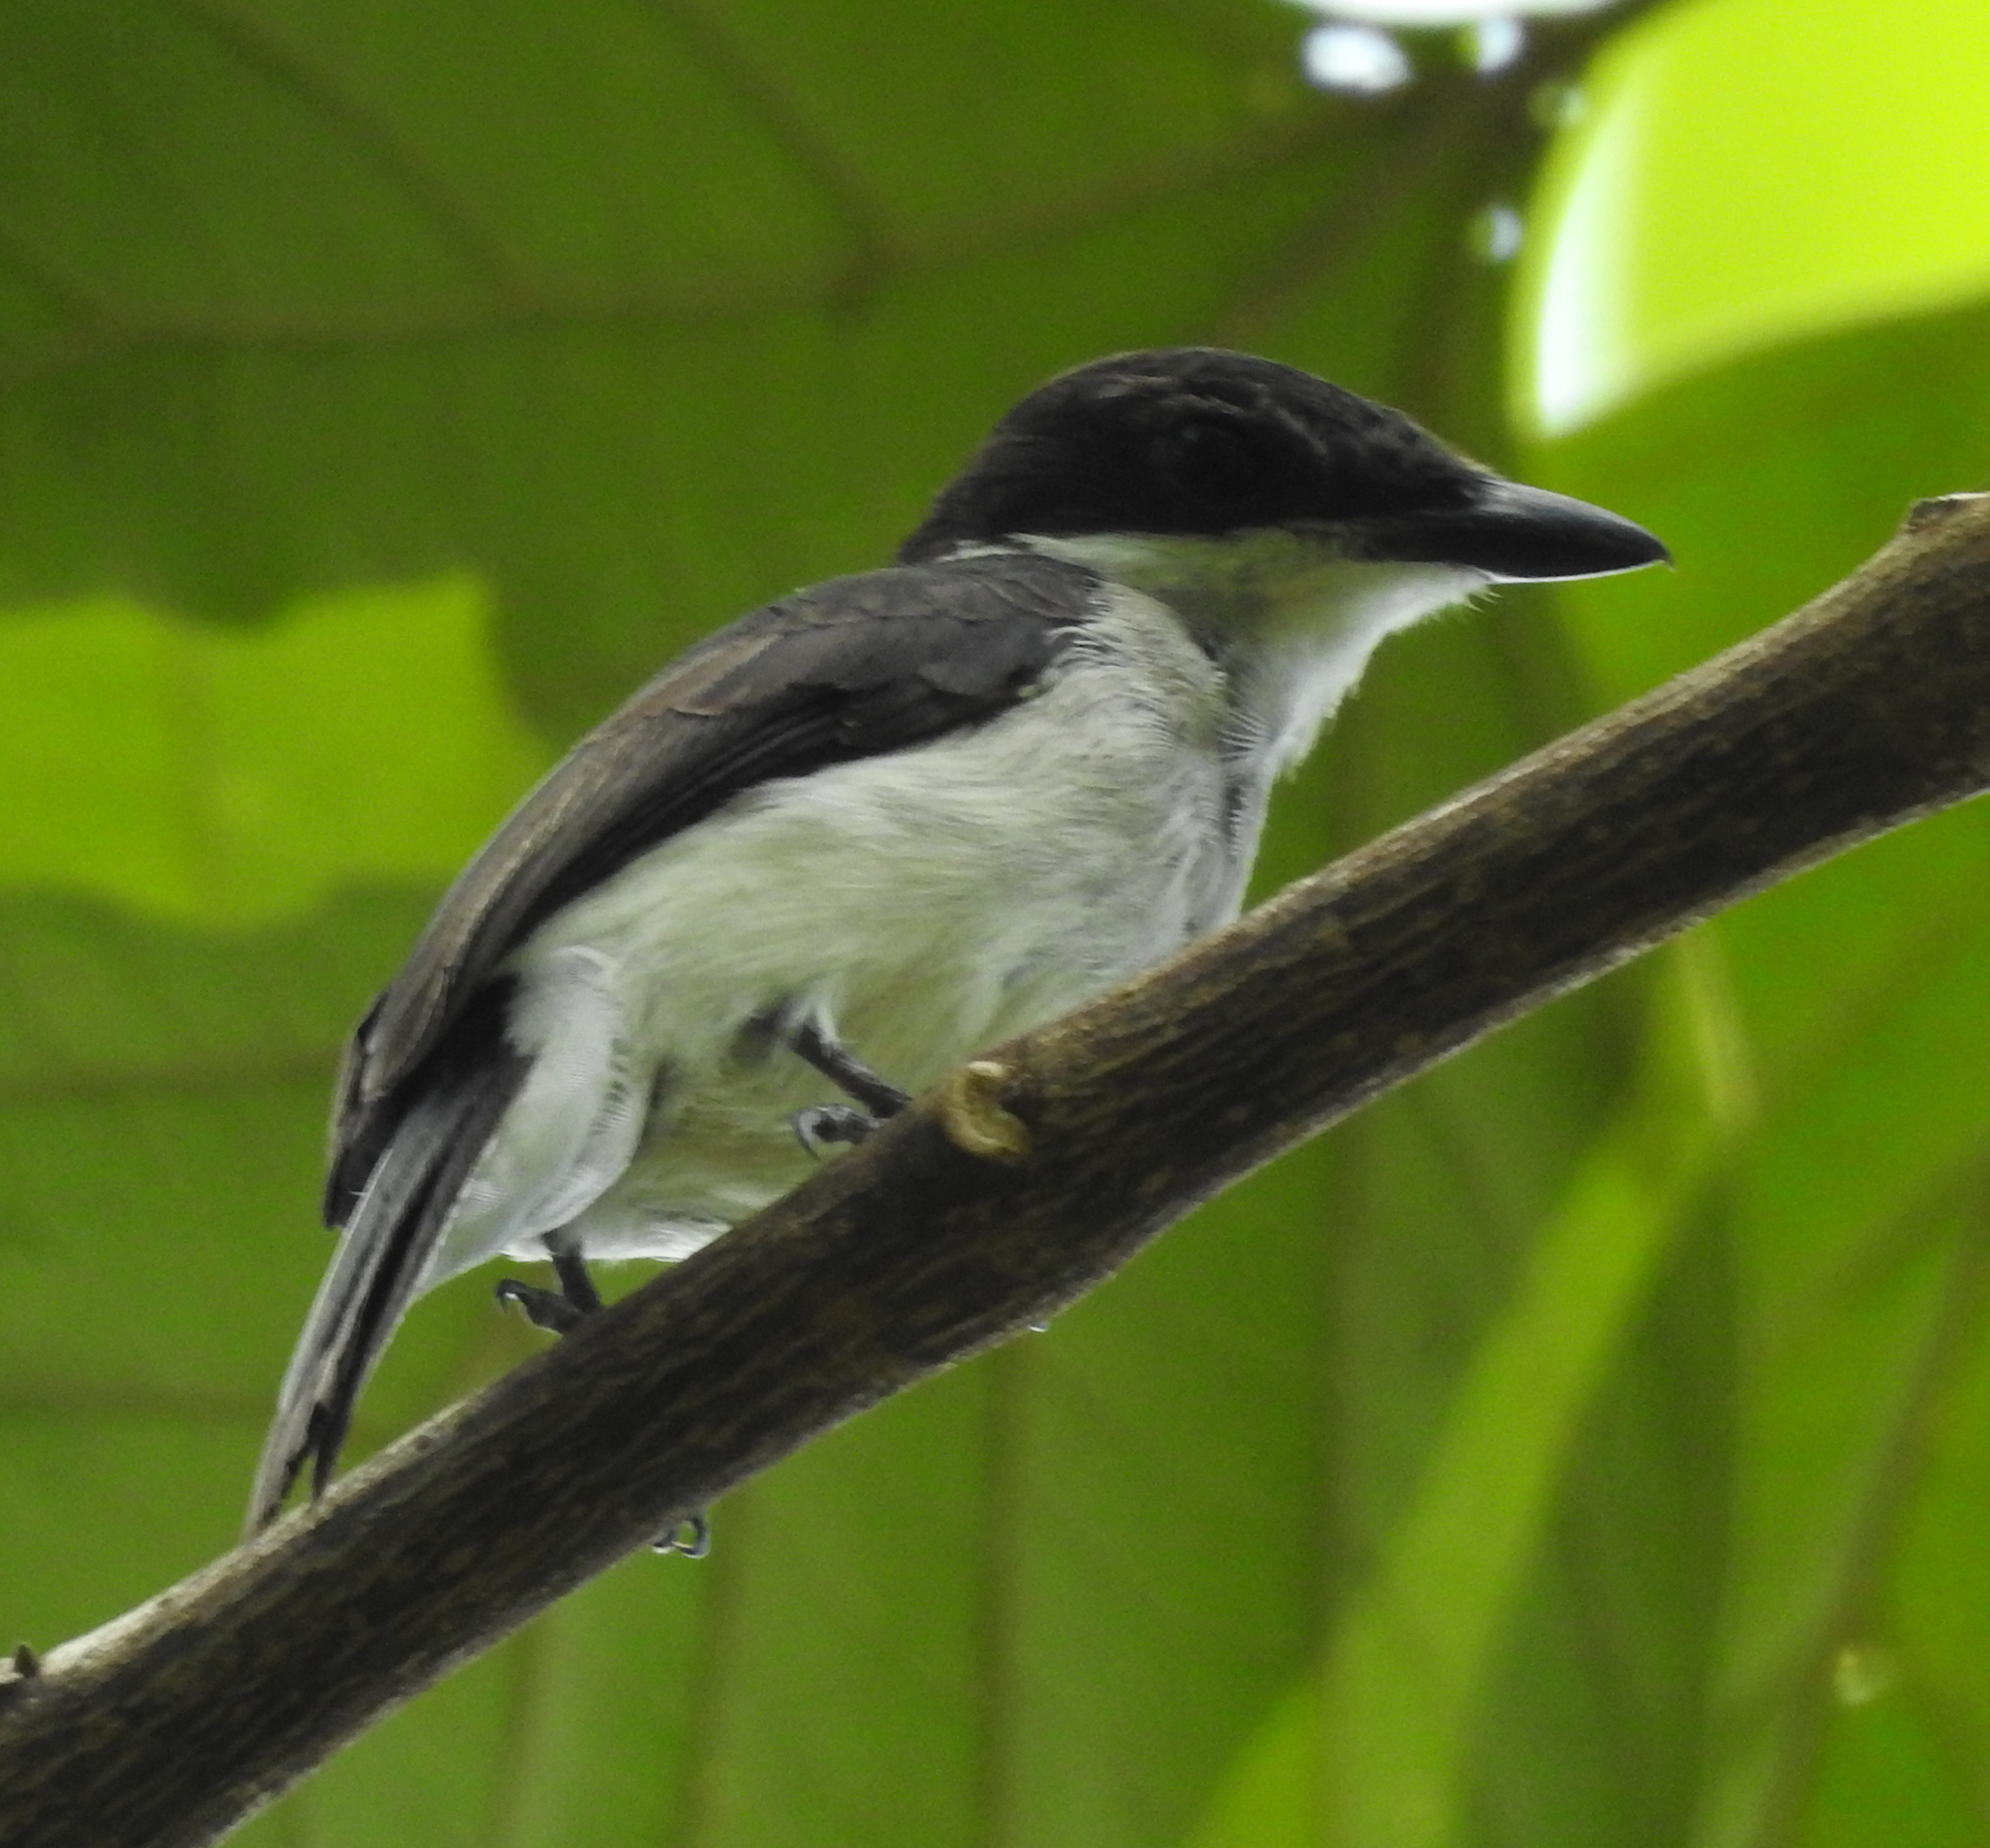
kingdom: Animalia
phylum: Chordata
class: Aves
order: Passeriformes
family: Tephrodornithidae
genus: Hemipus
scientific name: Hemipus hirundinaceus
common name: Black-winged flycatcher-shrike
